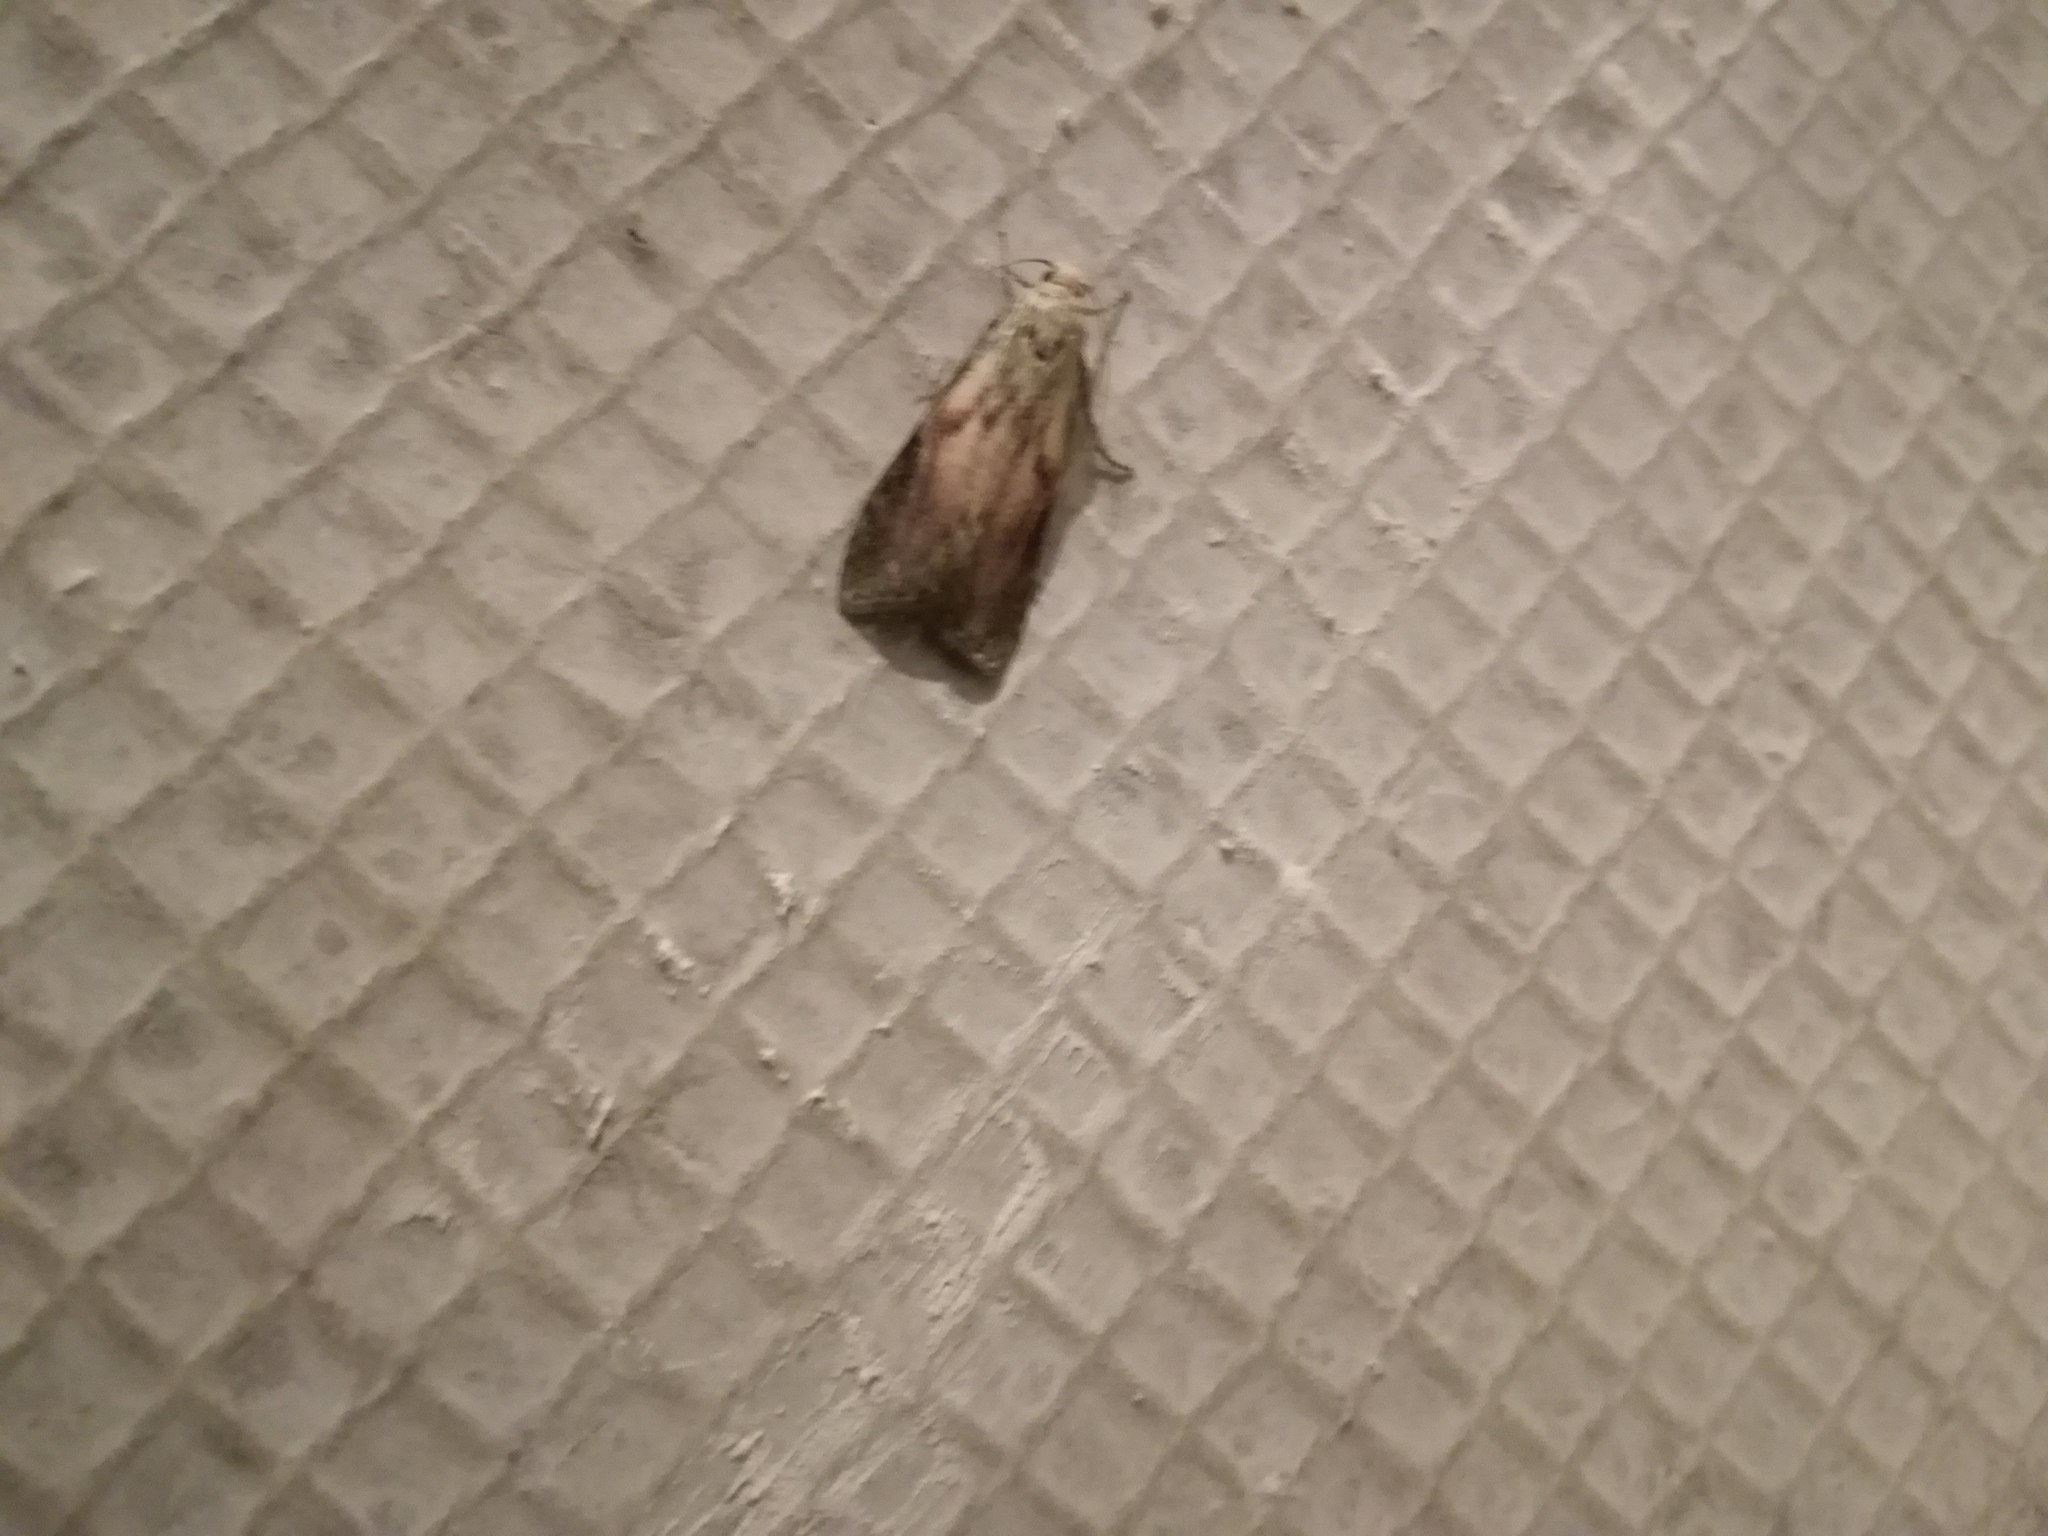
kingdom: Animalia
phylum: Arthropoda
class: Insecta
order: Lepidoptera
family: Pyralidae
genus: Aphomia
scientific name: Aphomia sociella
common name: Bee moth
